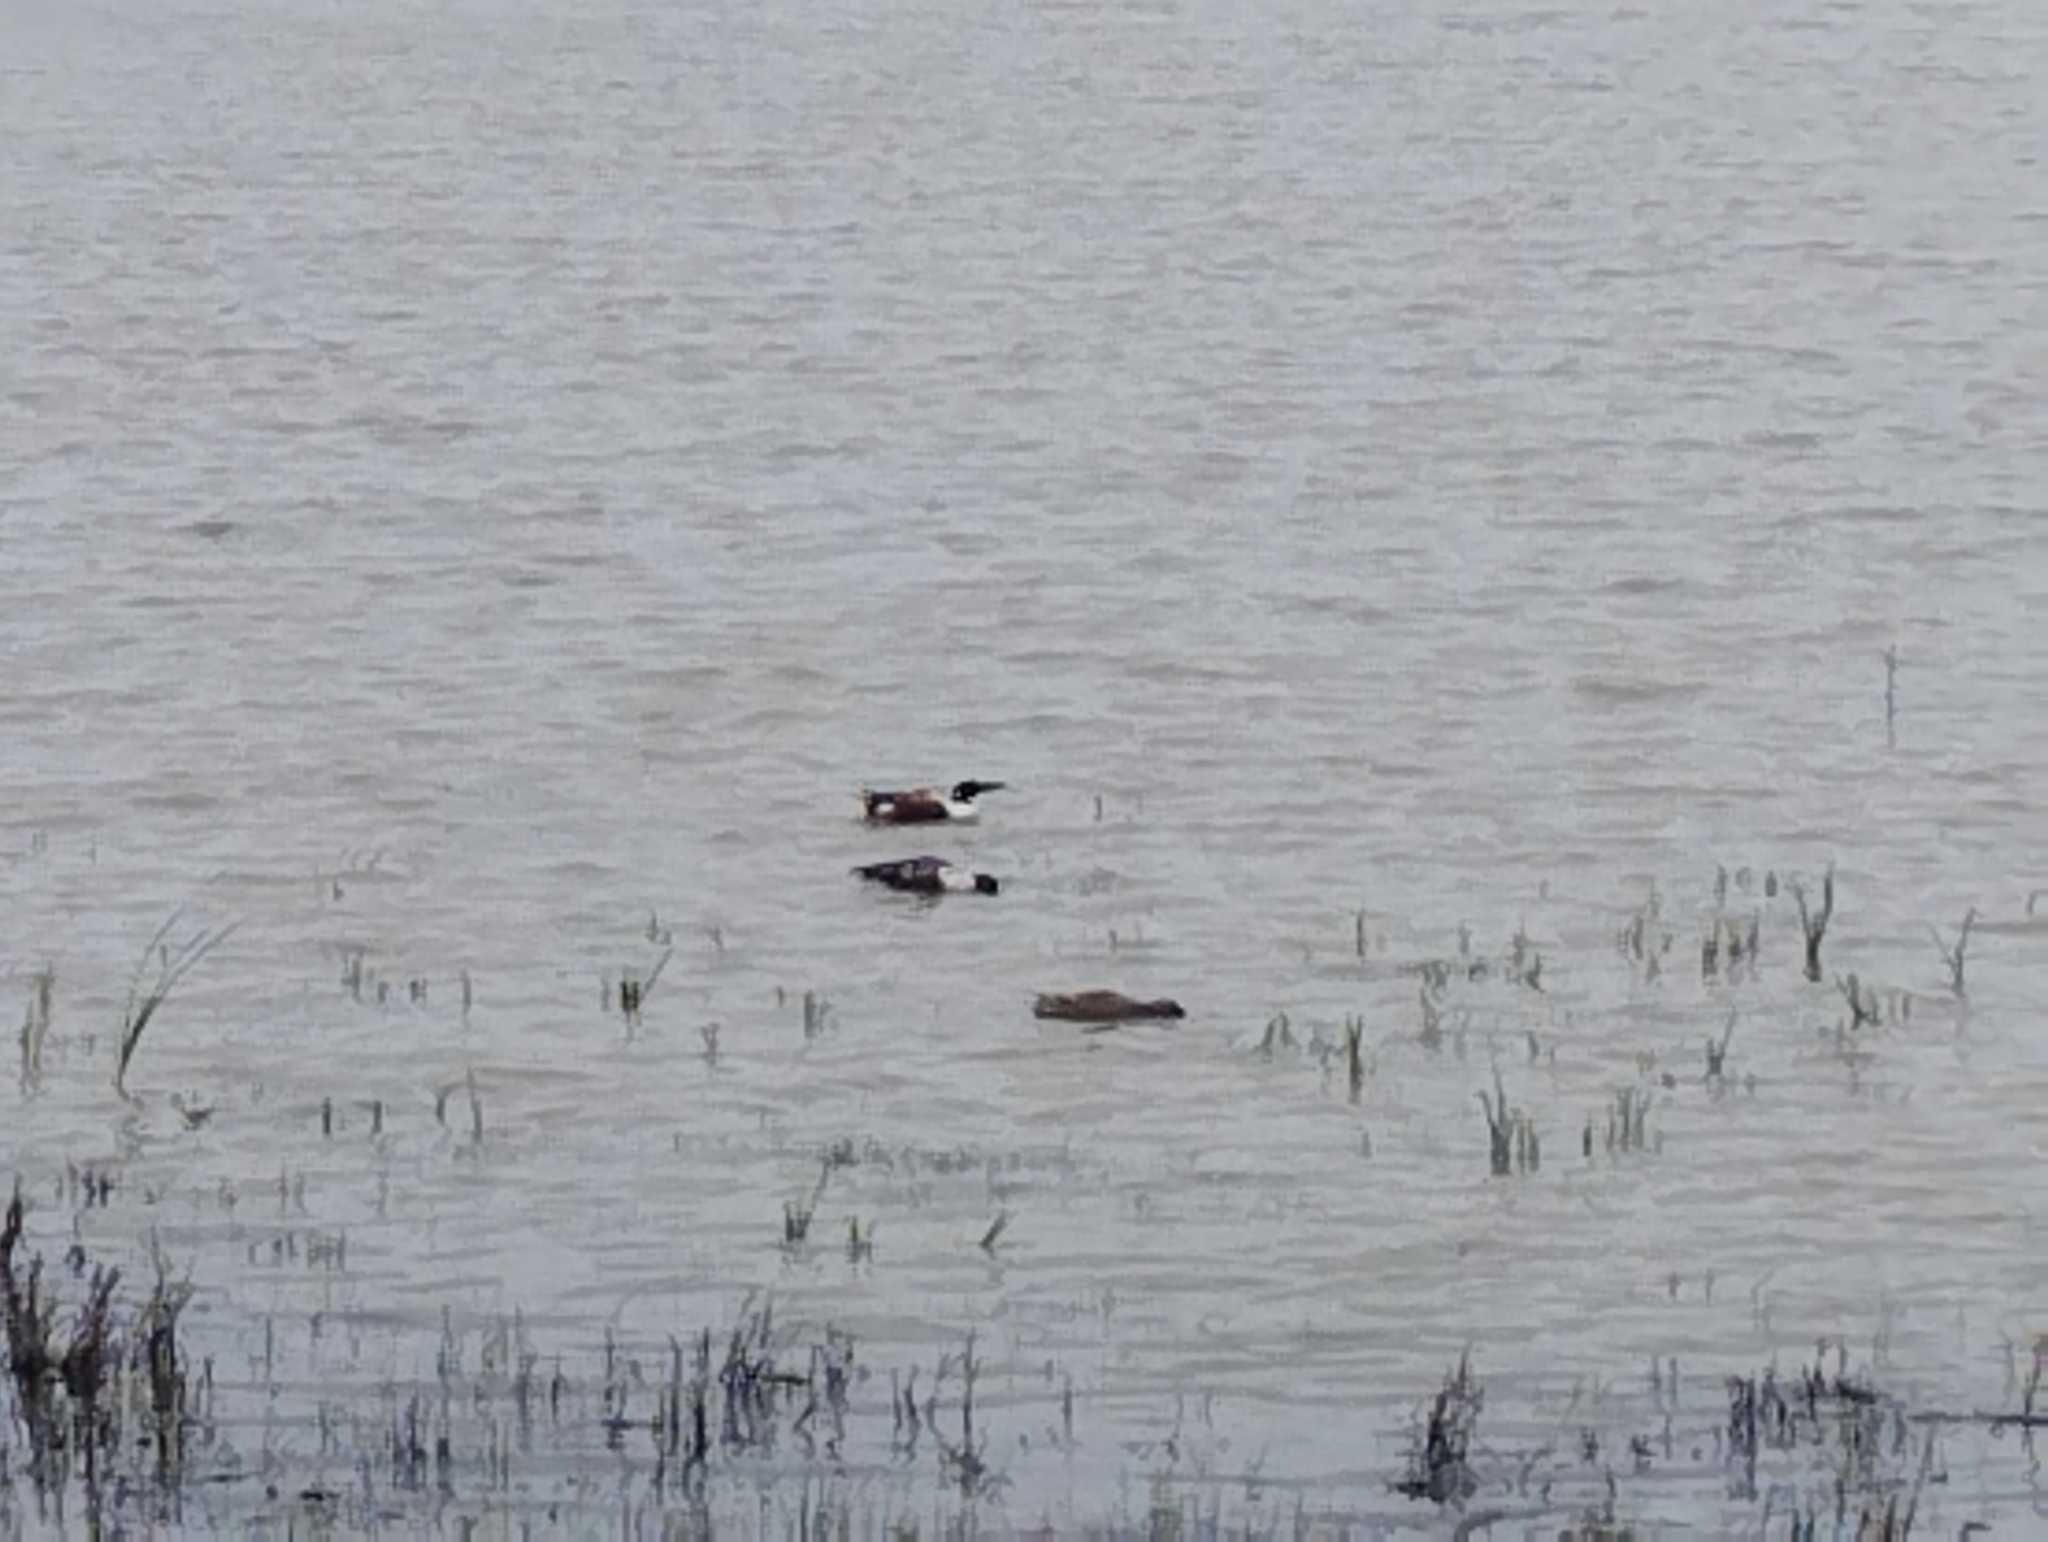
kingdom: Animalia
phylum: Chordata
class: Aves
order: Anseriformes
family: Anatidae
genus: Spatula
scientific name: Spatula clypeata
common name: Northern shoveler
